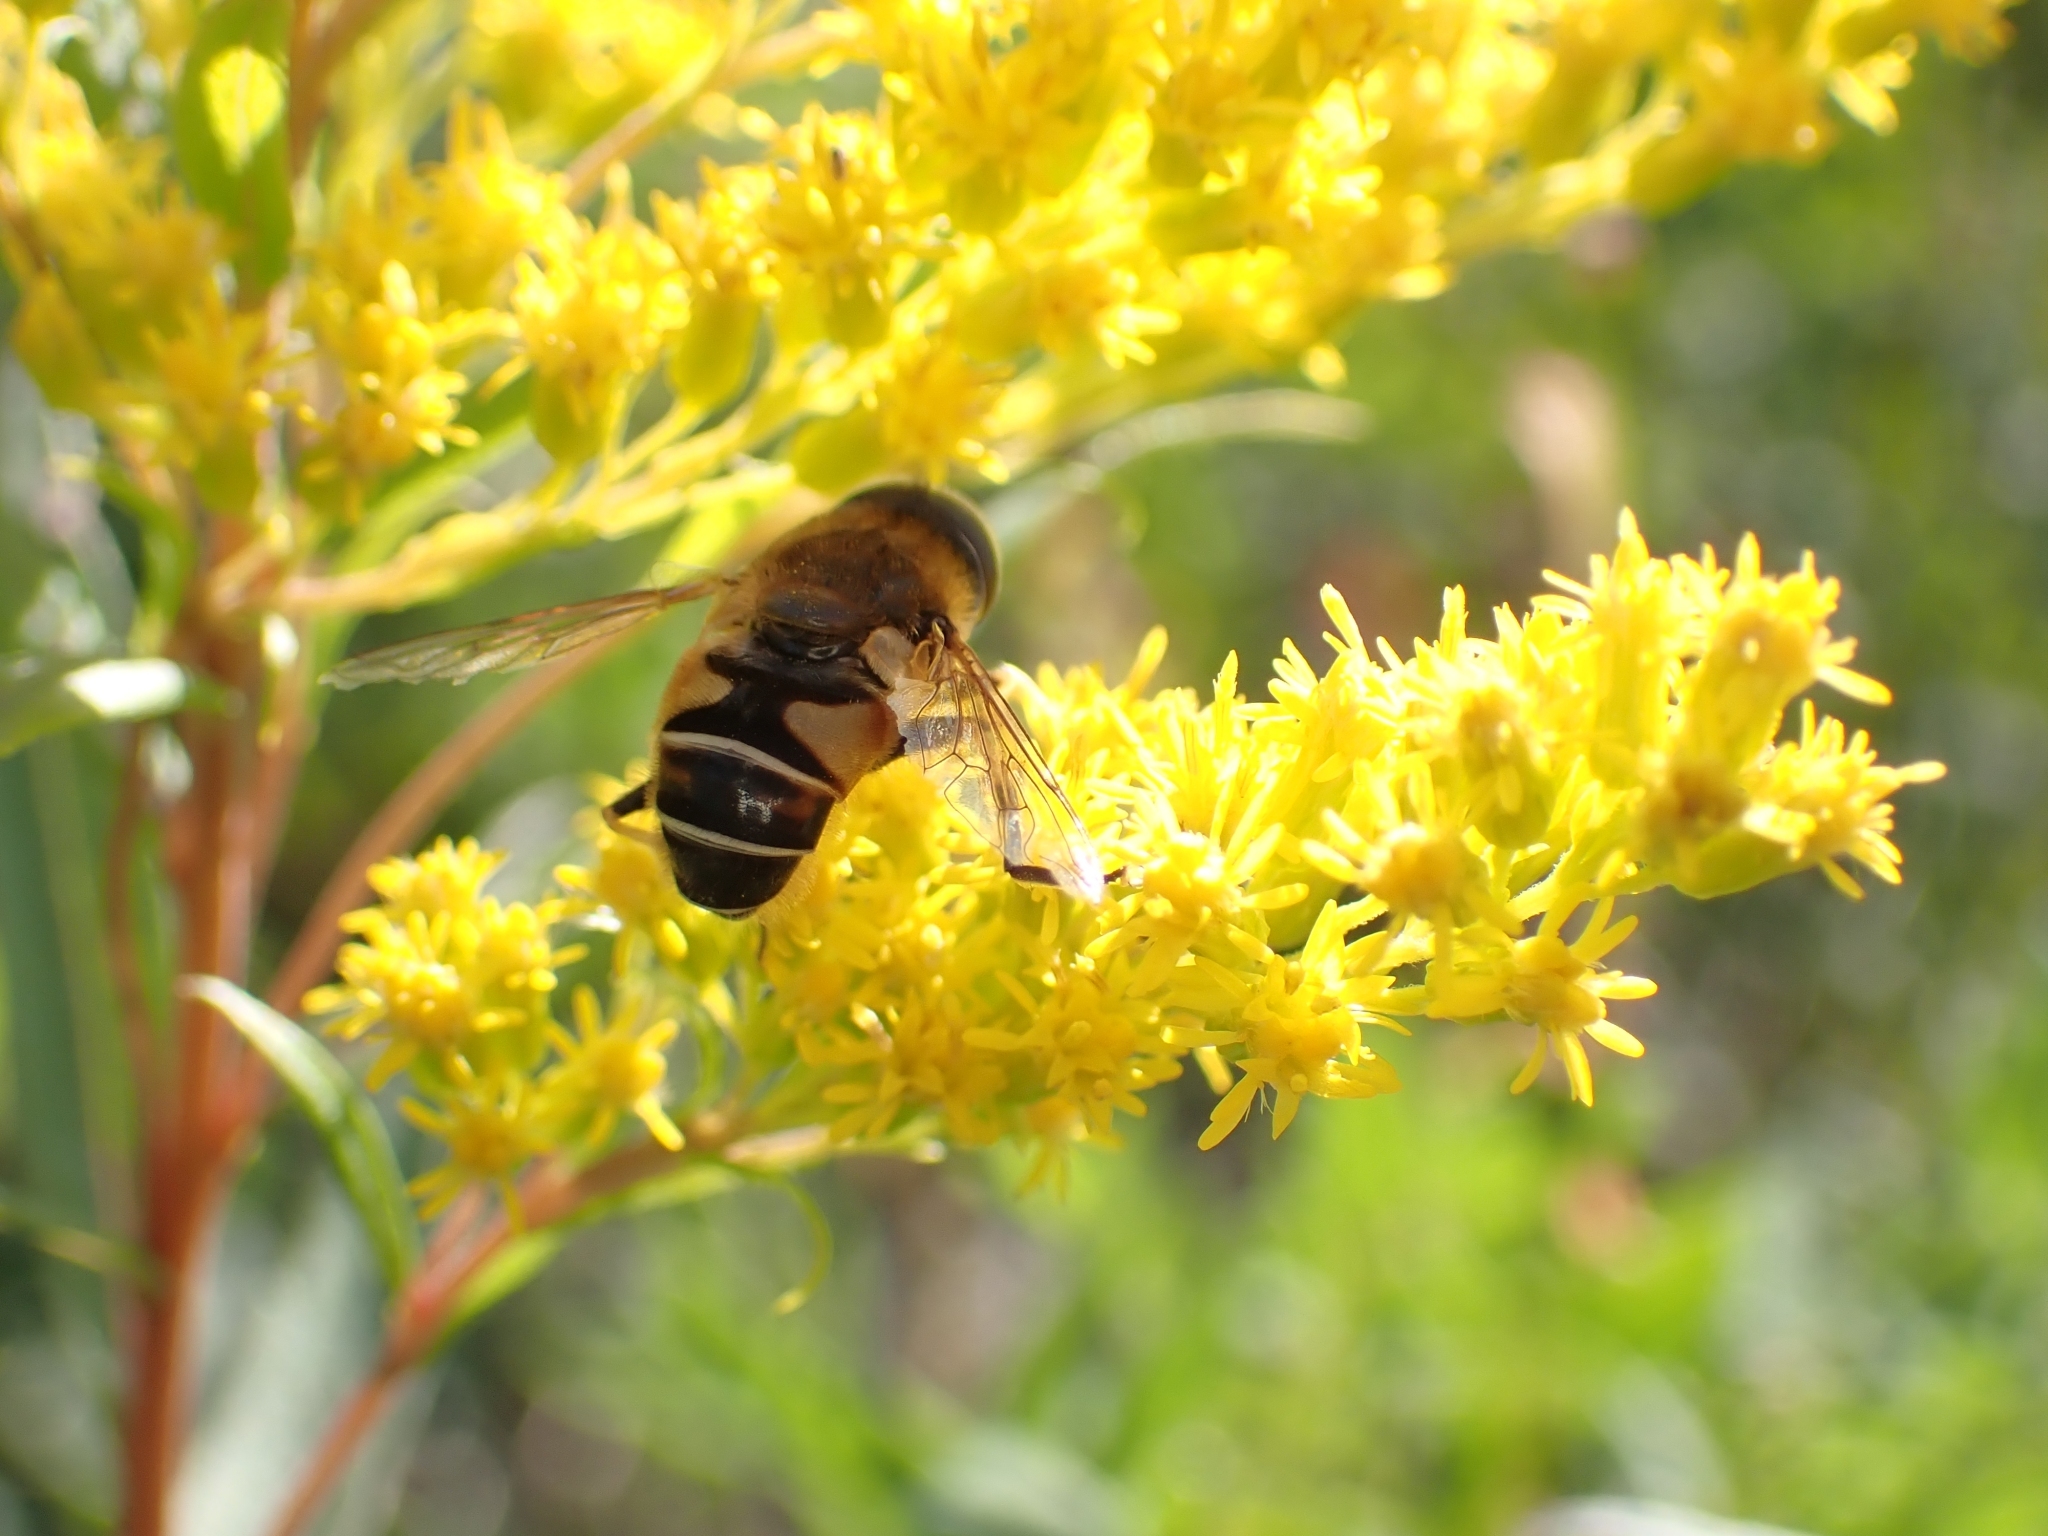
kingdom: Animalia
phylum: Arthropoda
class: Insecta
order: Diptera
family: Syrphidae
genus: Eristalis
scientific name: Eristalis nemorum
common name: Orange-spined drone fly
